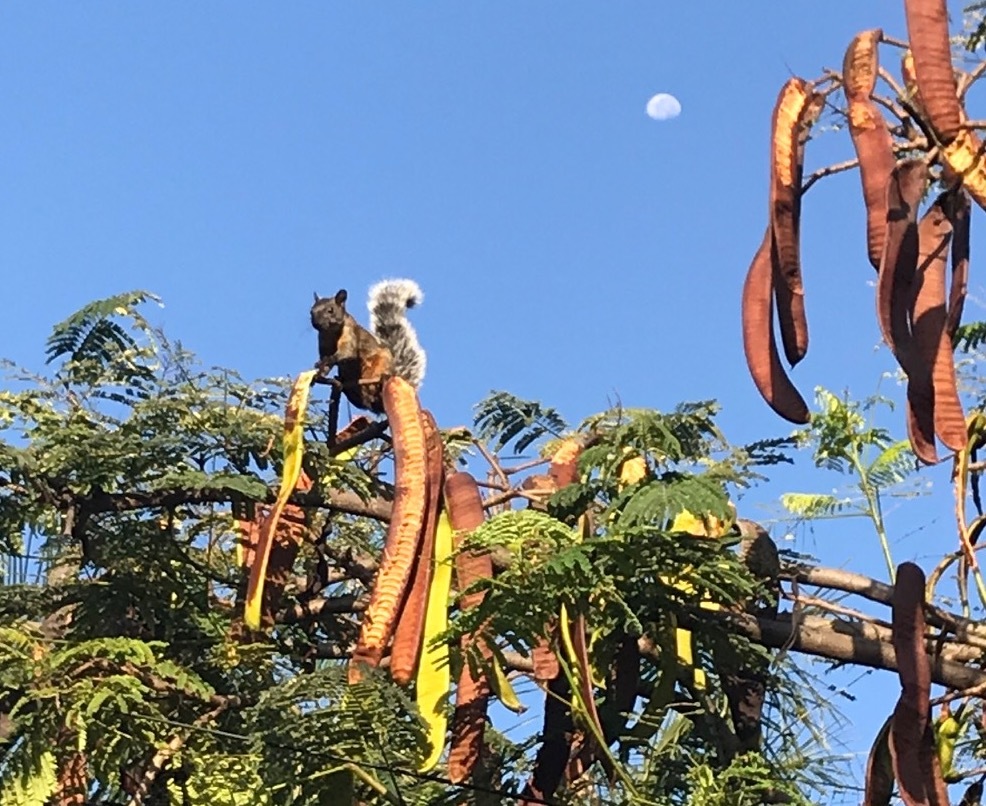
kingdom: Animalia
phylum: Chordata
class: Mammalia
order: Rodentia
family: Sciuridae
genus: Sciurus
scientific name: Sciurus aureogaster
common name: Red-bellied squirrel
